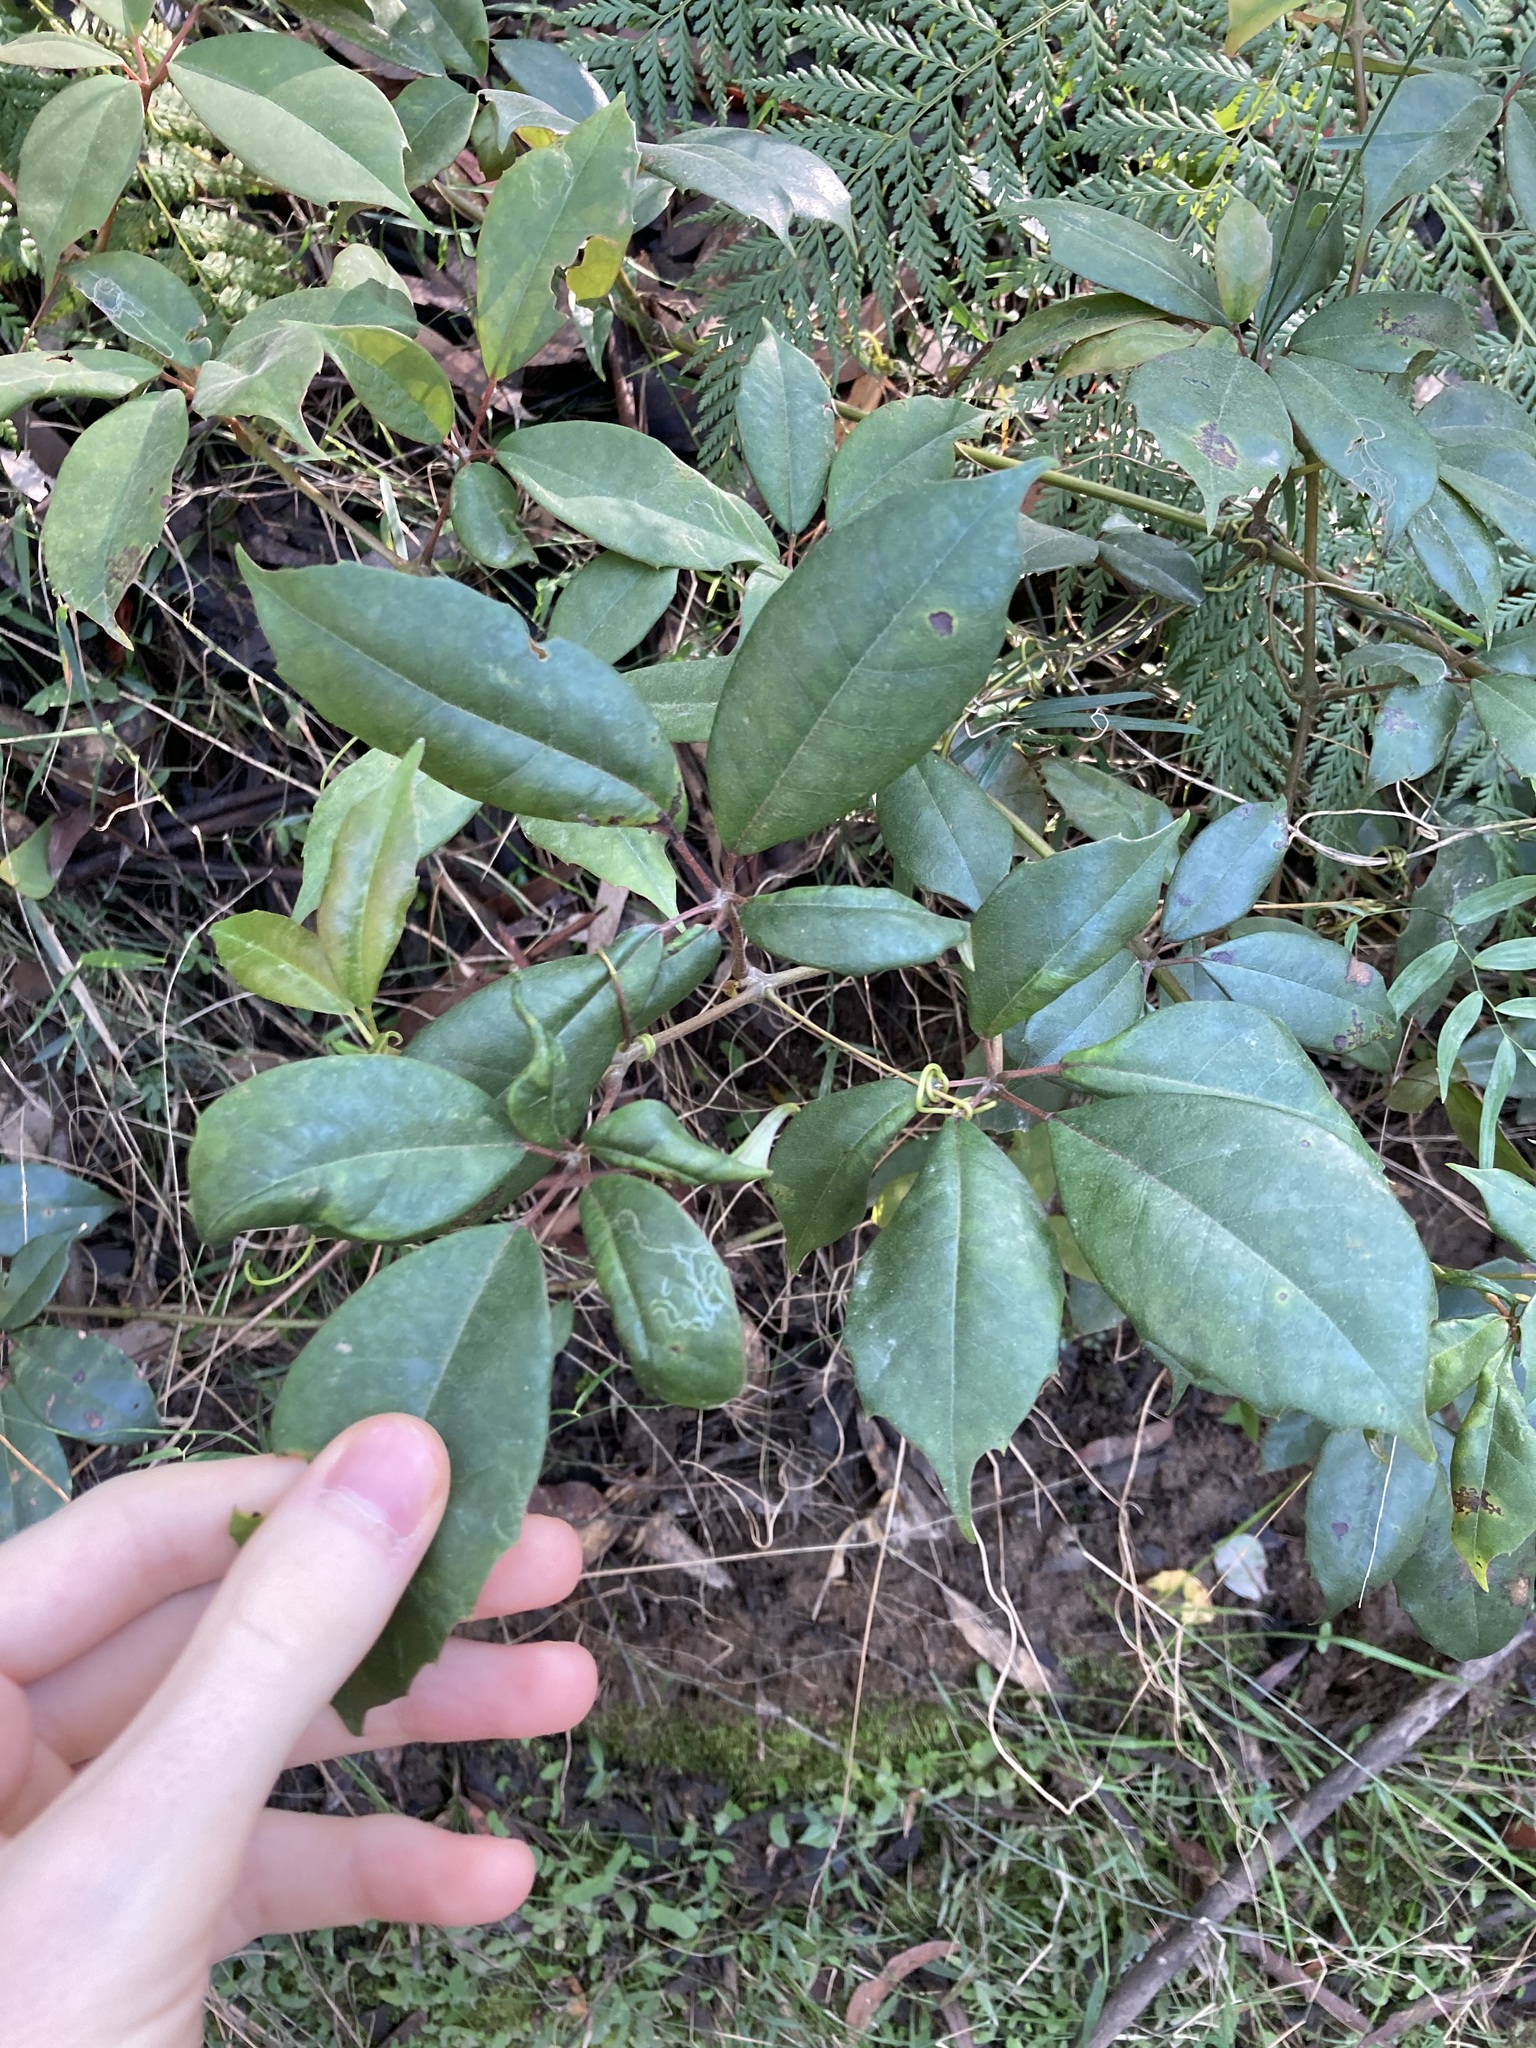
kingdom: Plantae
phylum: Tracheophyta
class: Magnoliopsida
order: Vitales
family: Vitaceae
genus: Nothocissus
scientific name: Nothocissus hypoglauca
